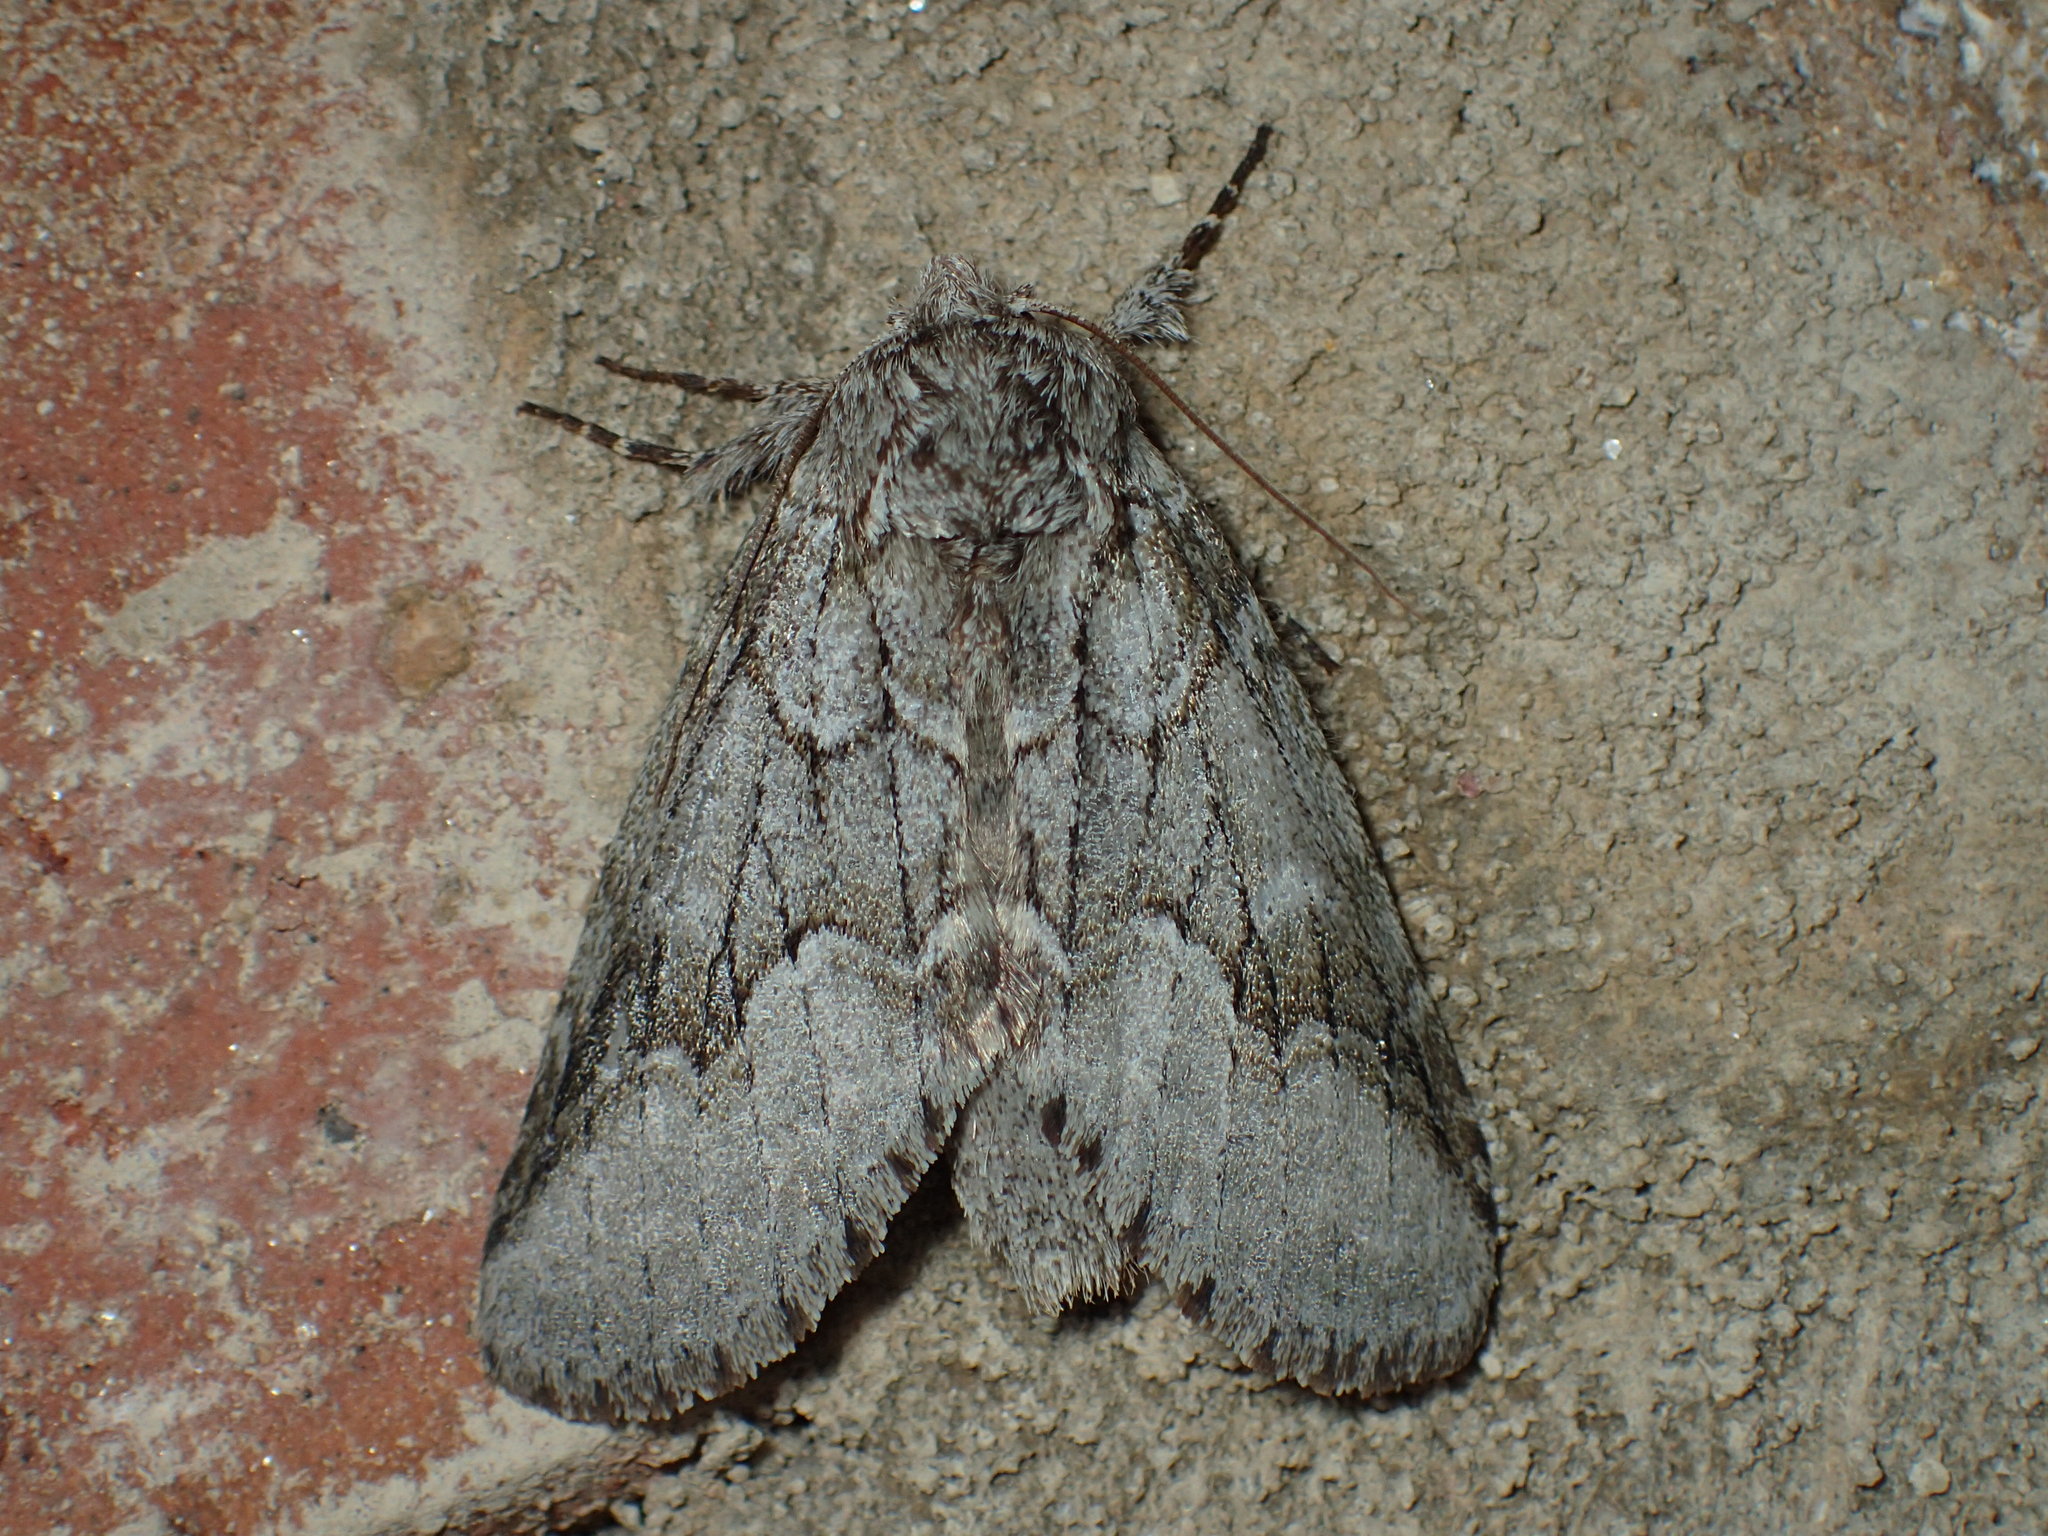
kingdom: Animalia
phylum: Arthropoda
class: Insecta
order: Lepidoptera
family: Notodontidae
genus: Lochmaeus
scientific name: Lochmaeus bilineata
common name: Double-lined prominent
